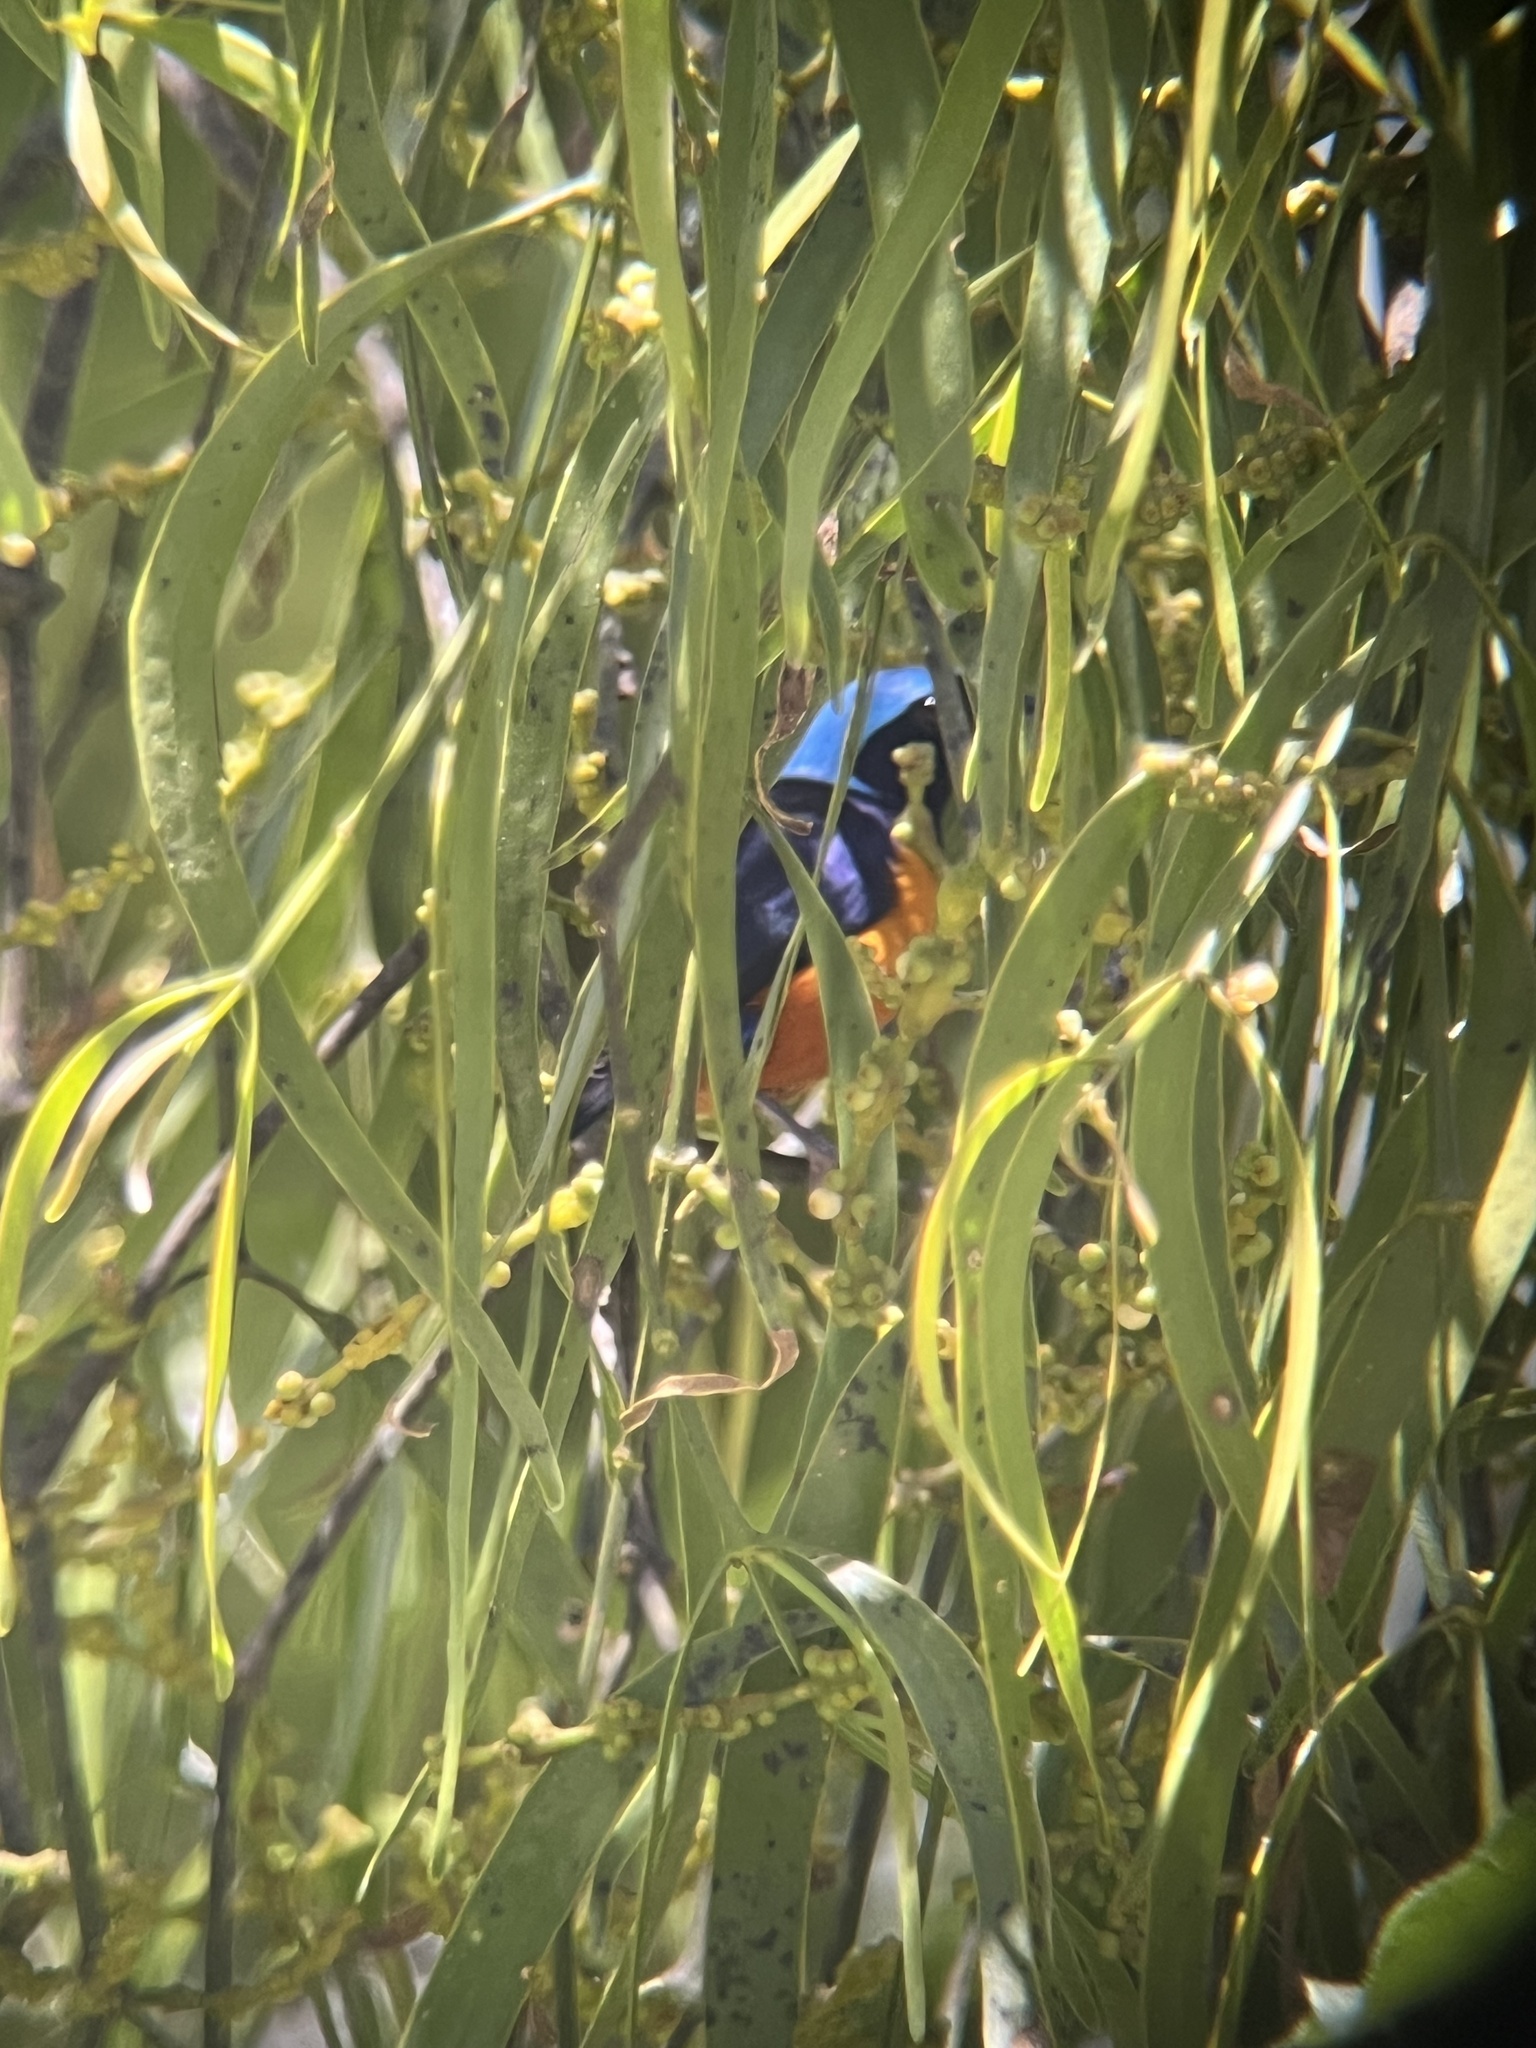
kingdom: Animalia
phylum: Chordata
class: Aves
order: Passeriformes
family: Fringillidae
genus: Euphonia
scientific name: Euphonia elegantissima
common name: Elegant euphonia
